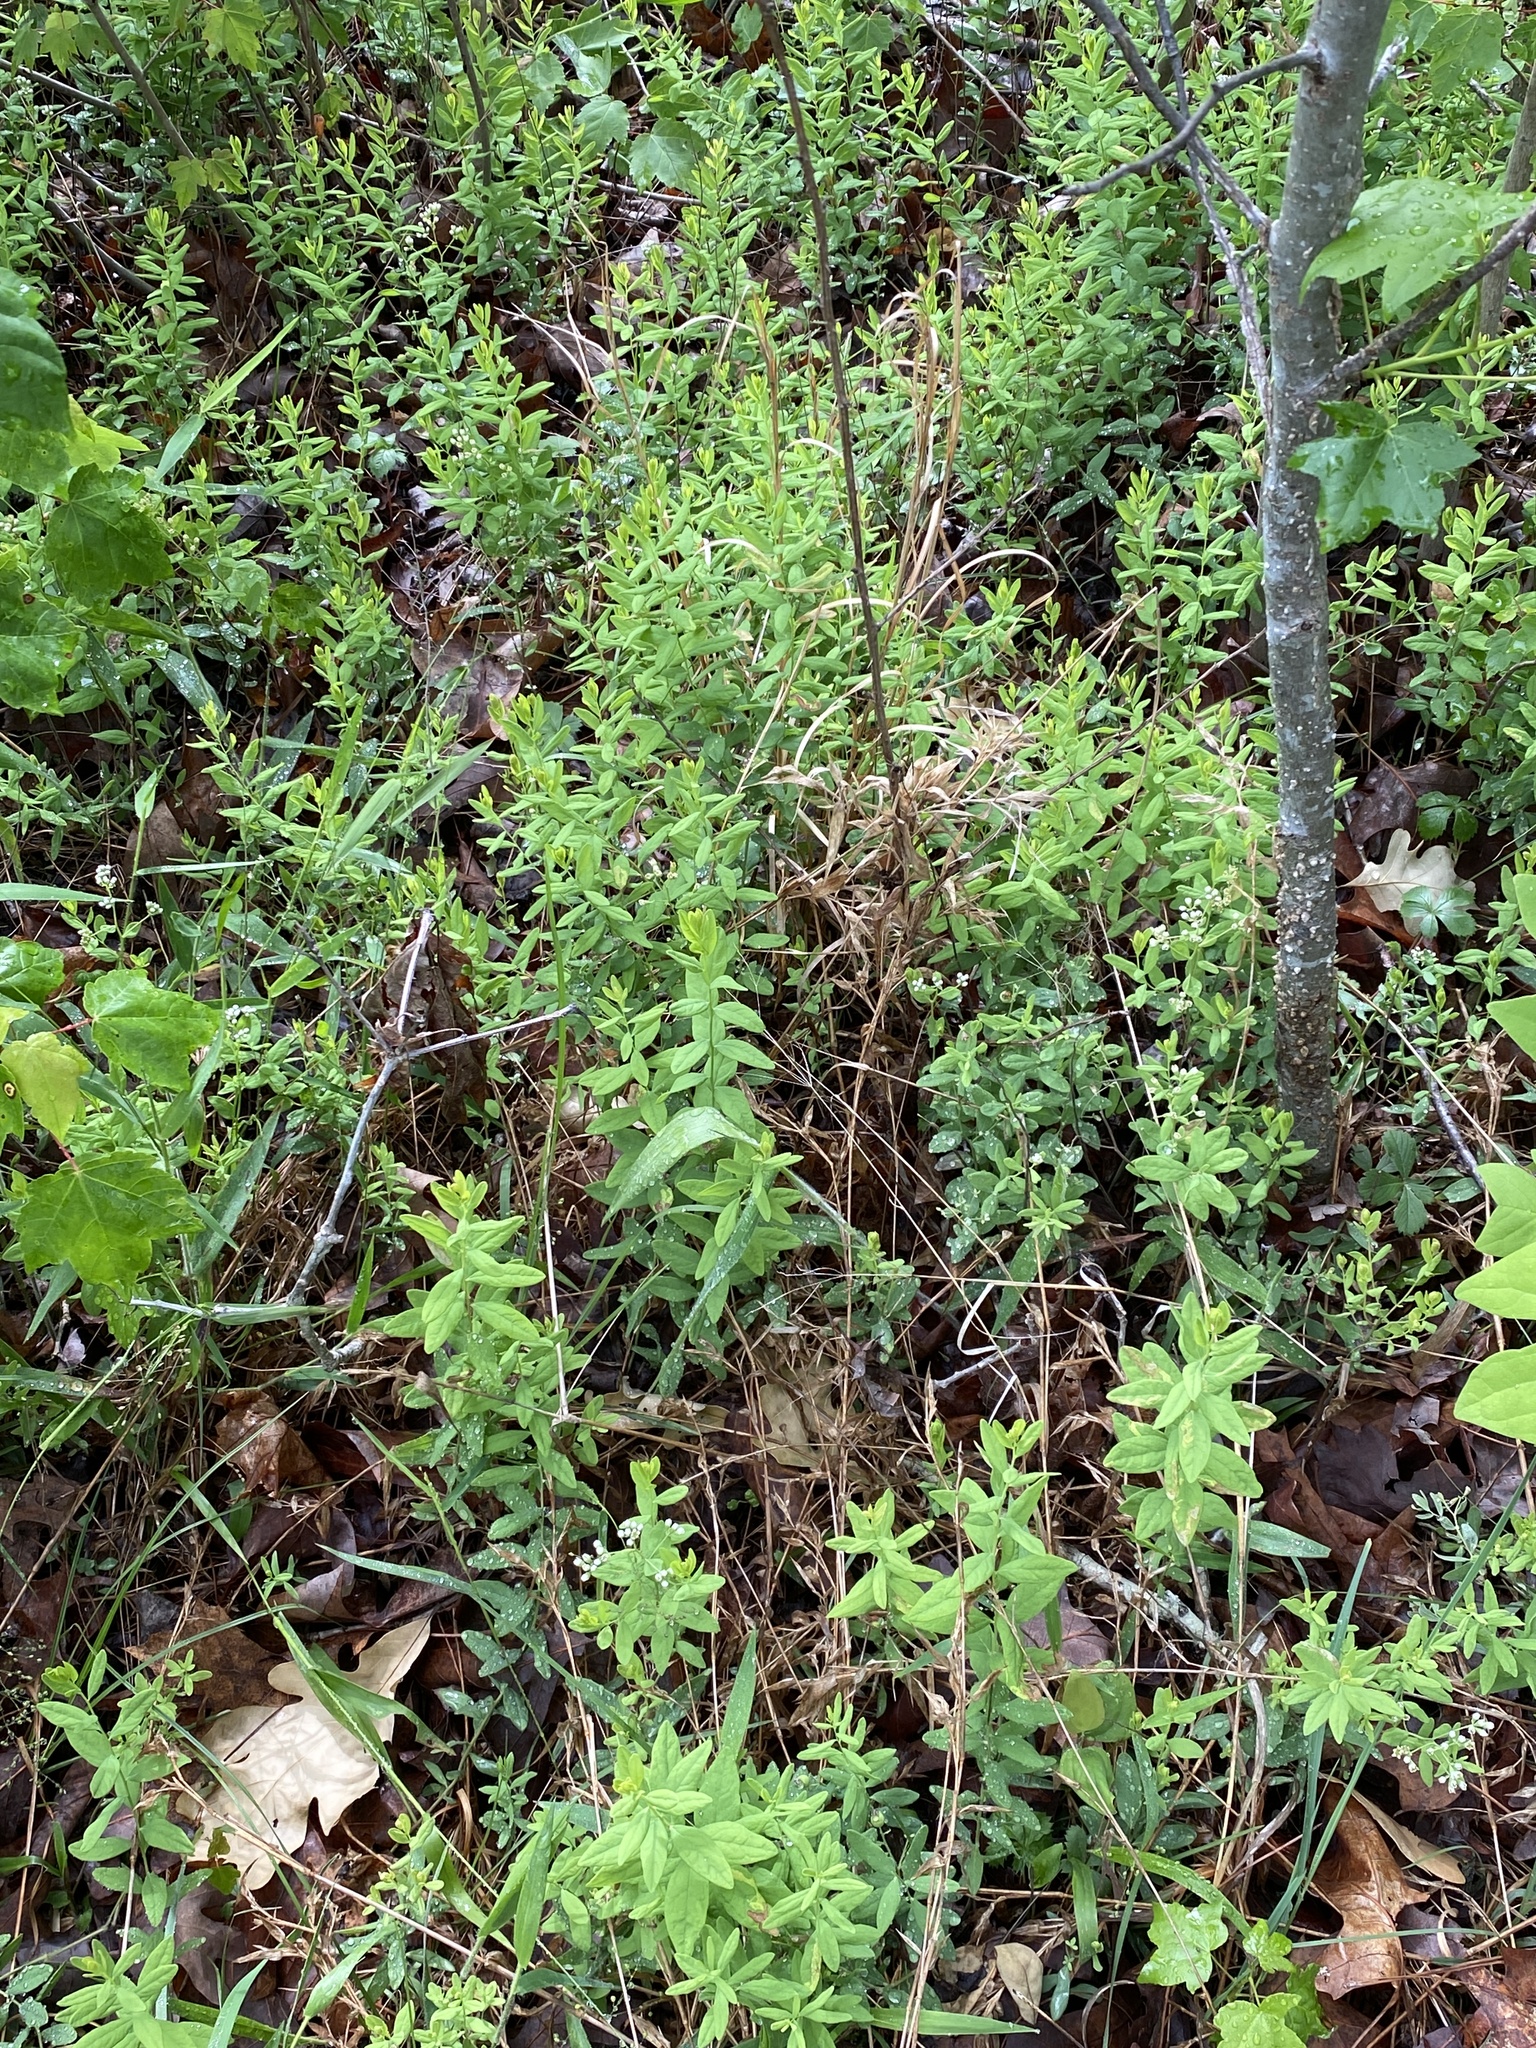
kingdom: Plantae
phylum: Tracheophyta
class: Magnoliopsida
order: Santalales
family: Comandraceae
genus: Comandra
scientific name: Comandra umbellata
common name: Bastard toadflax
